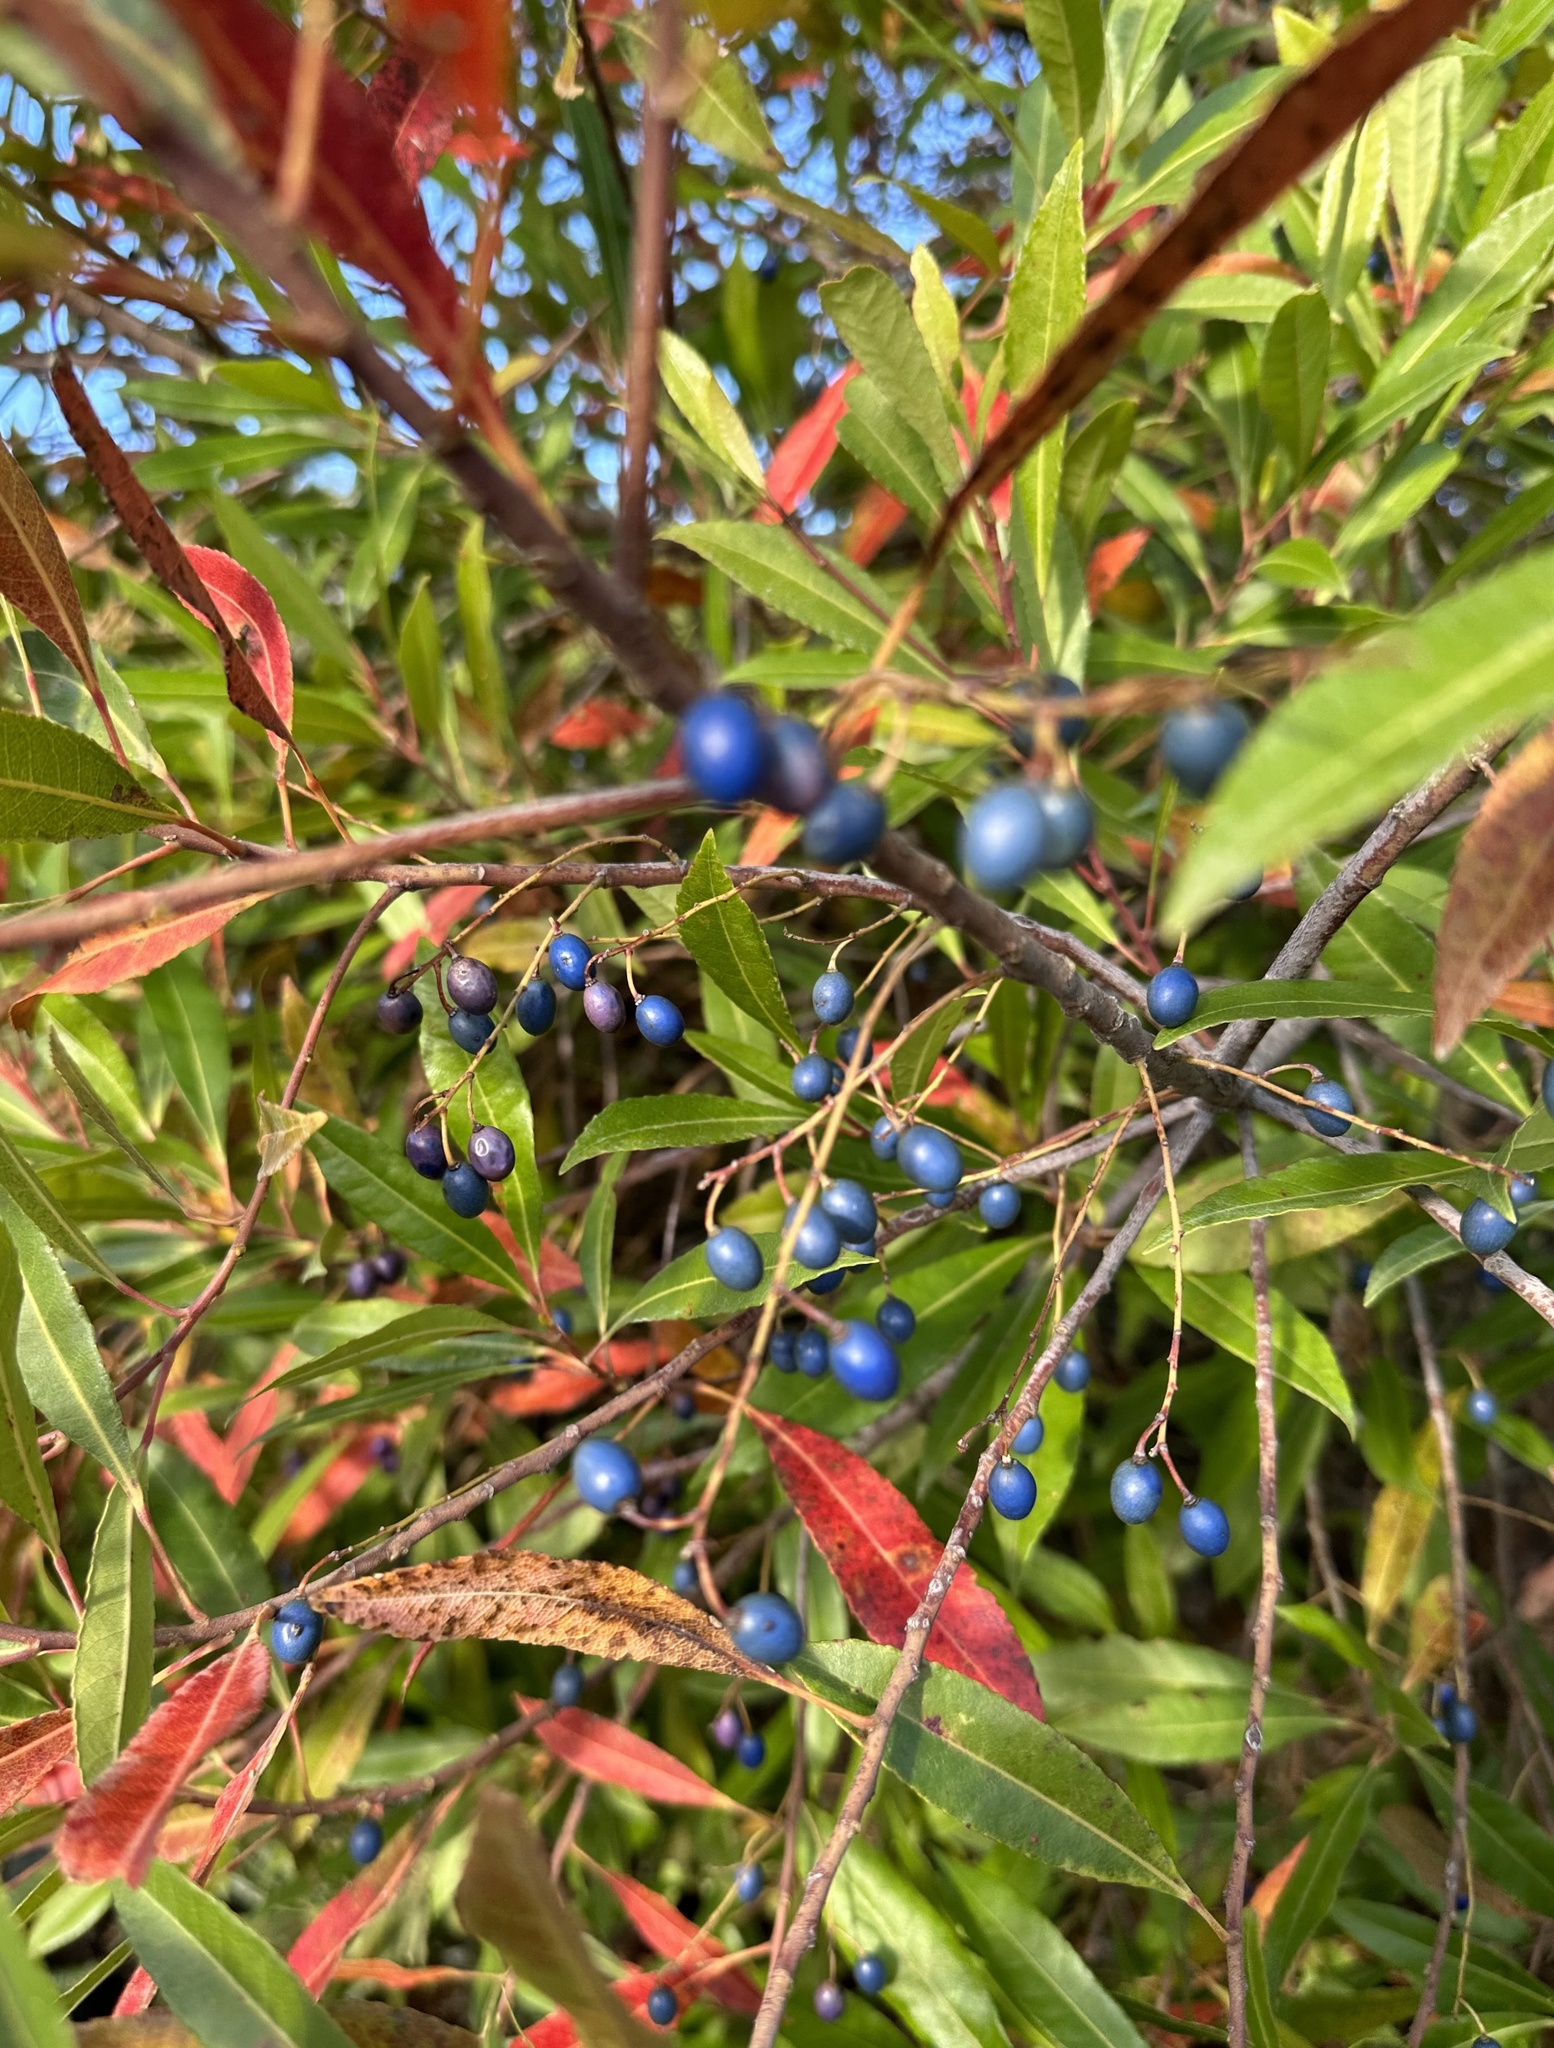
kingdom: Plantae
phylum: Tracheophyta
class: Magnoliopsida
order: Oxalidales
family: Elaeocarpaceae
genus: Elaeocarpus
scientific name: Elaeocarpus reticulatus
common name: Ash quandong
